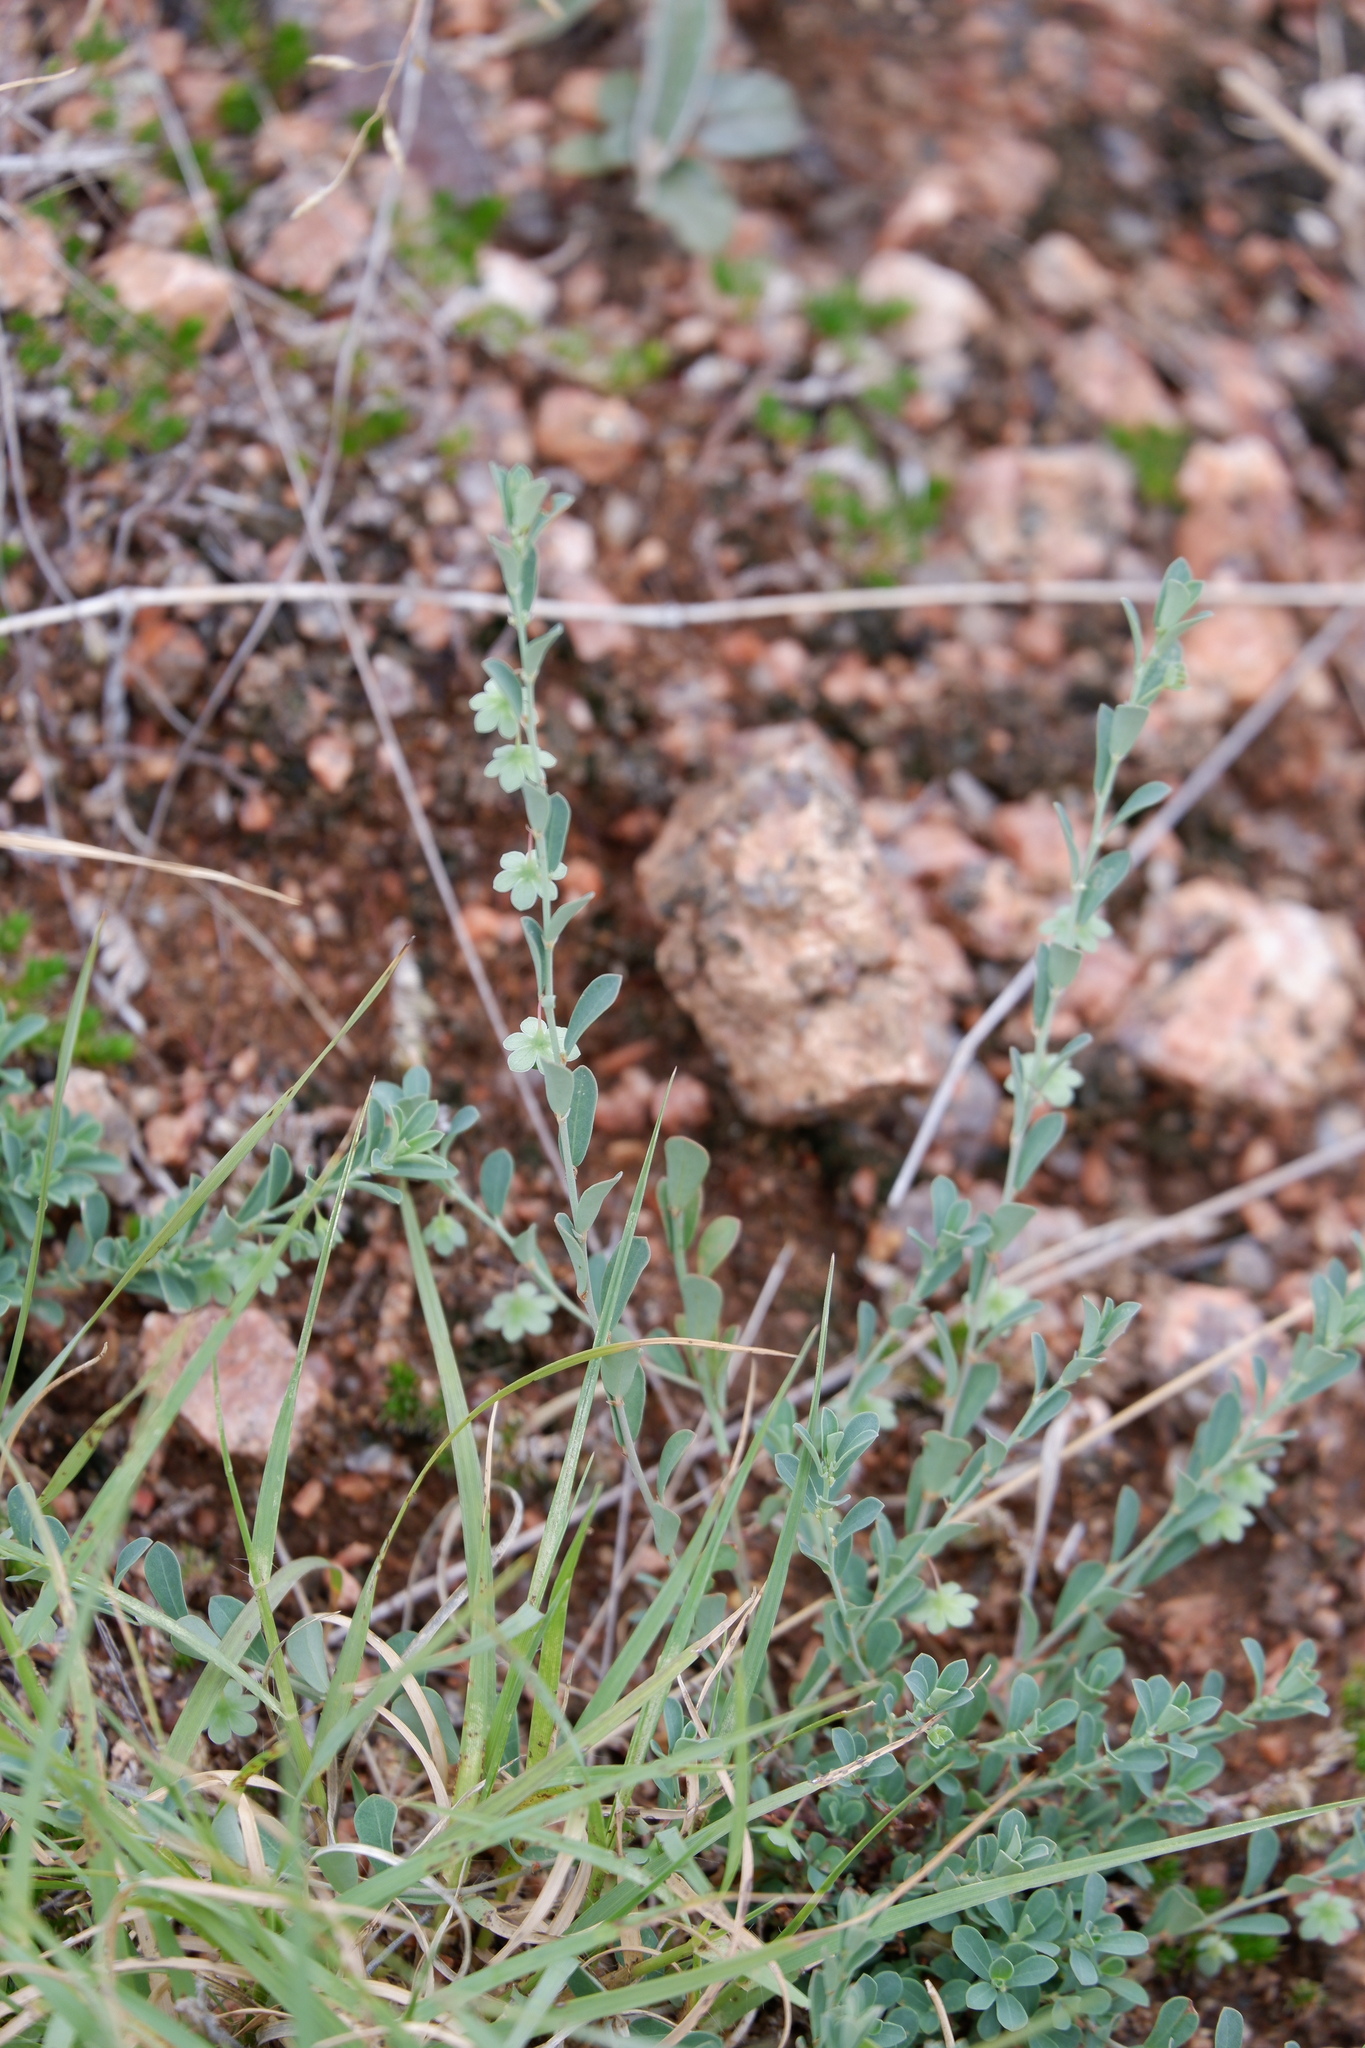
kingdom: Plantae
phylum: Tracheophyta
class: Magnoliopsida
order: Malpighiales
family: Phyllanthaceae
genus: Phyllanthus
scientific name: Phyllanthus polygonoides
